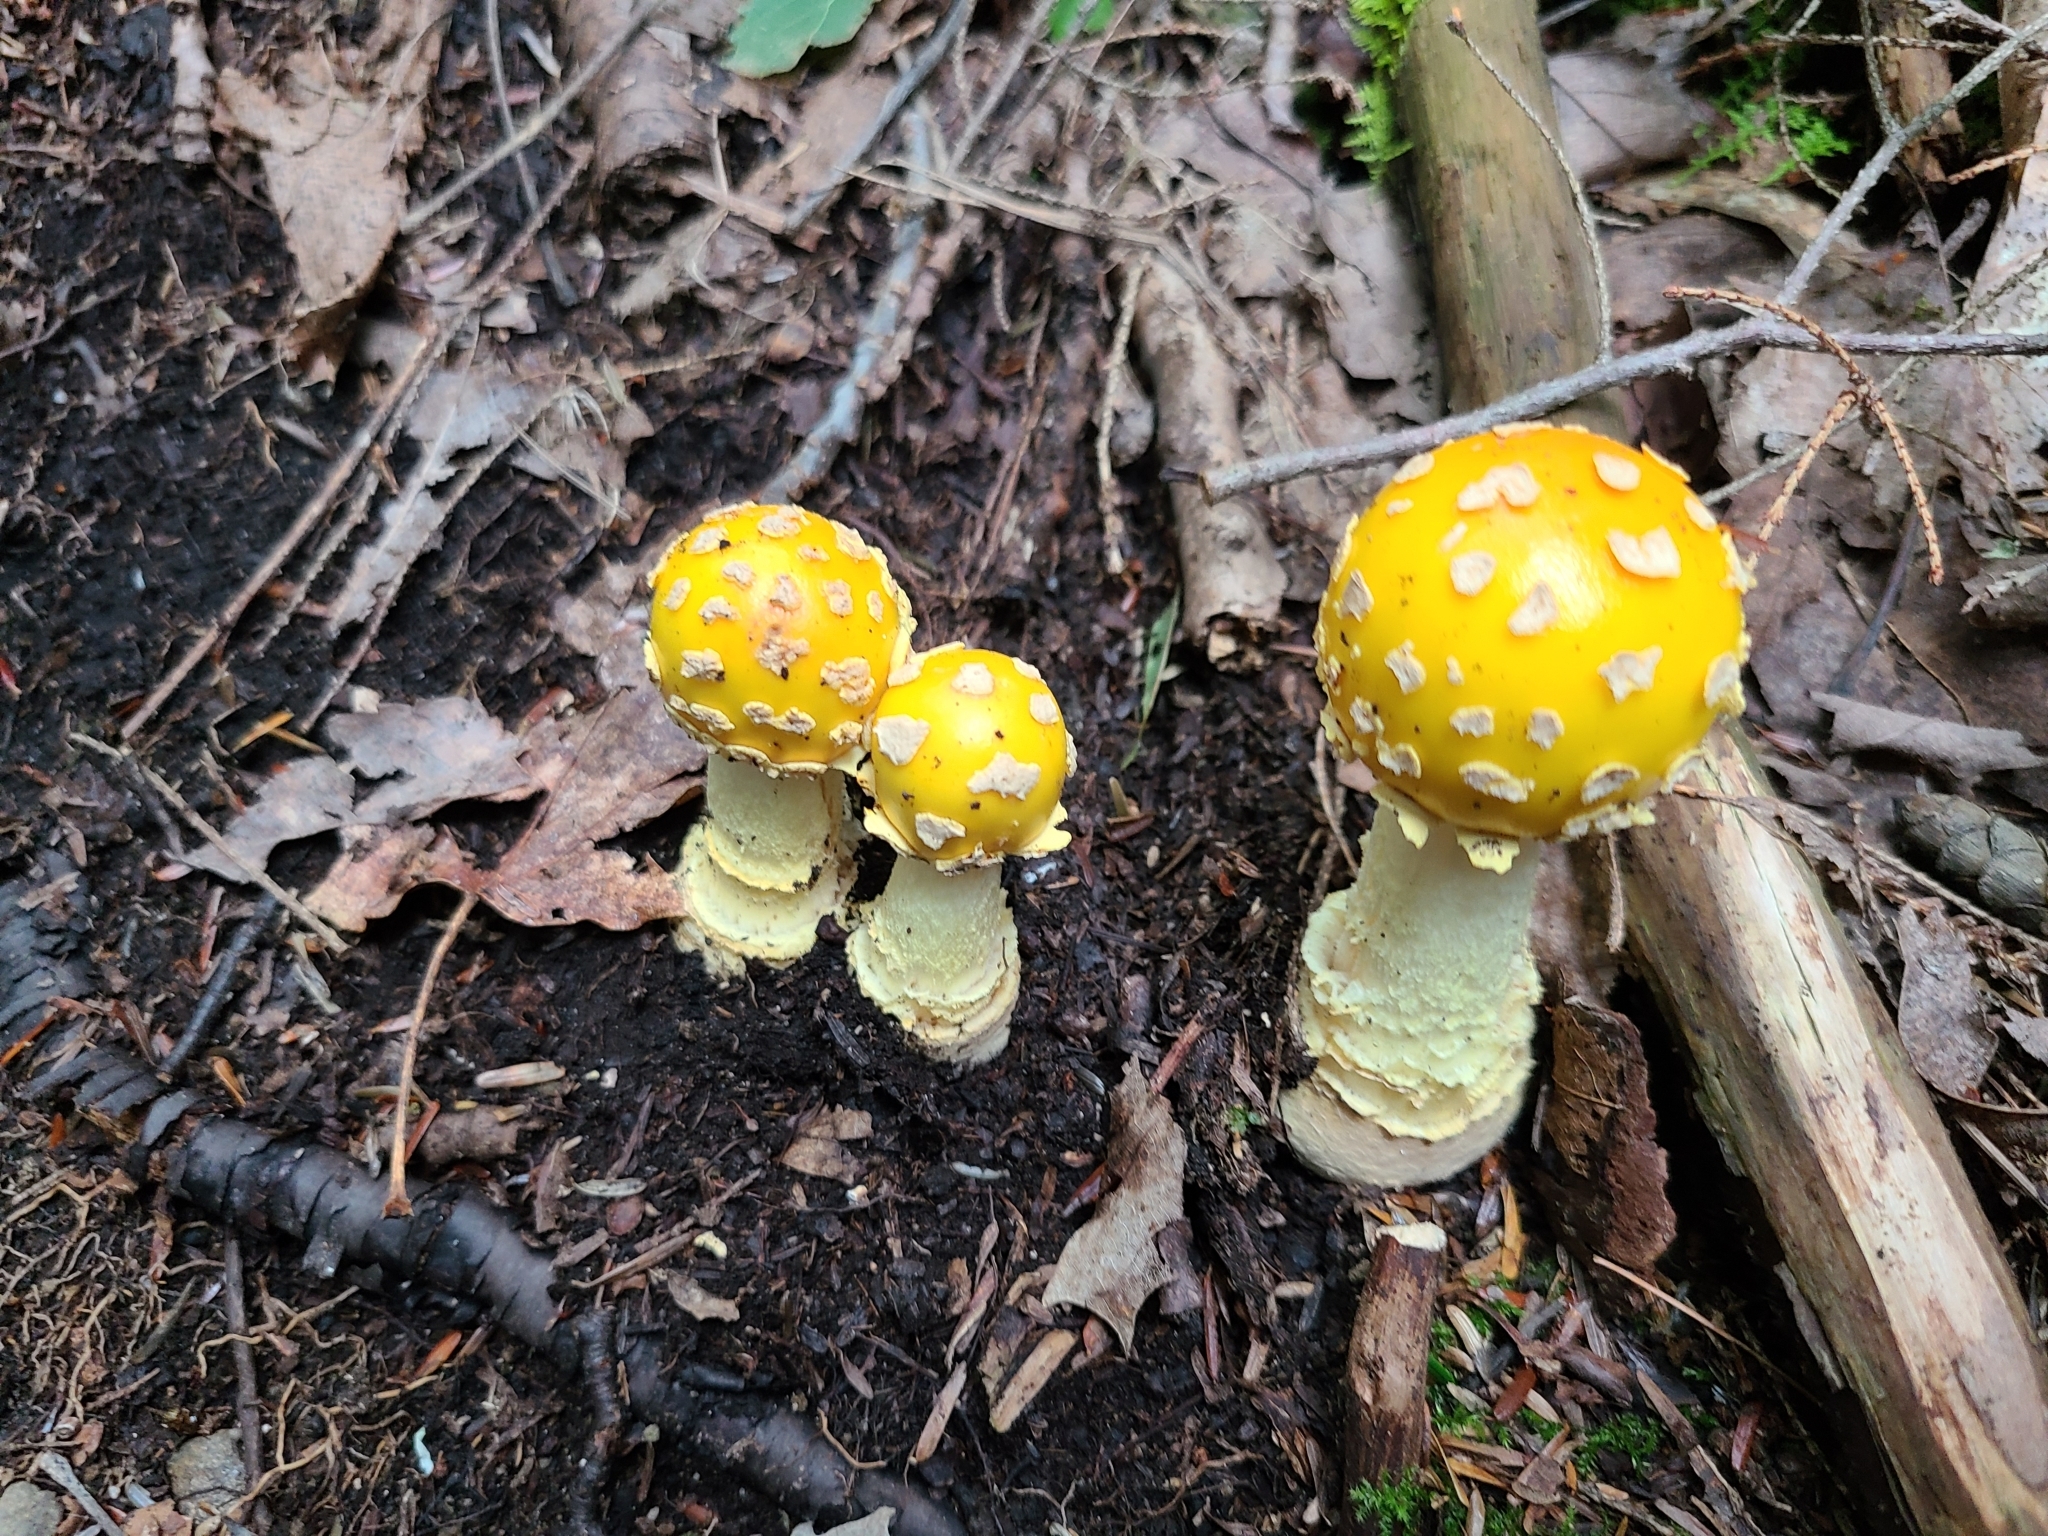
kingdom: Fungi
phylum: Basidiomycota
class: Agaricomycetes
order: Agaricales
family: Amanitaceae
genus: Amanita
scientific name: Amanita muscaria
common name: Fly agaric
